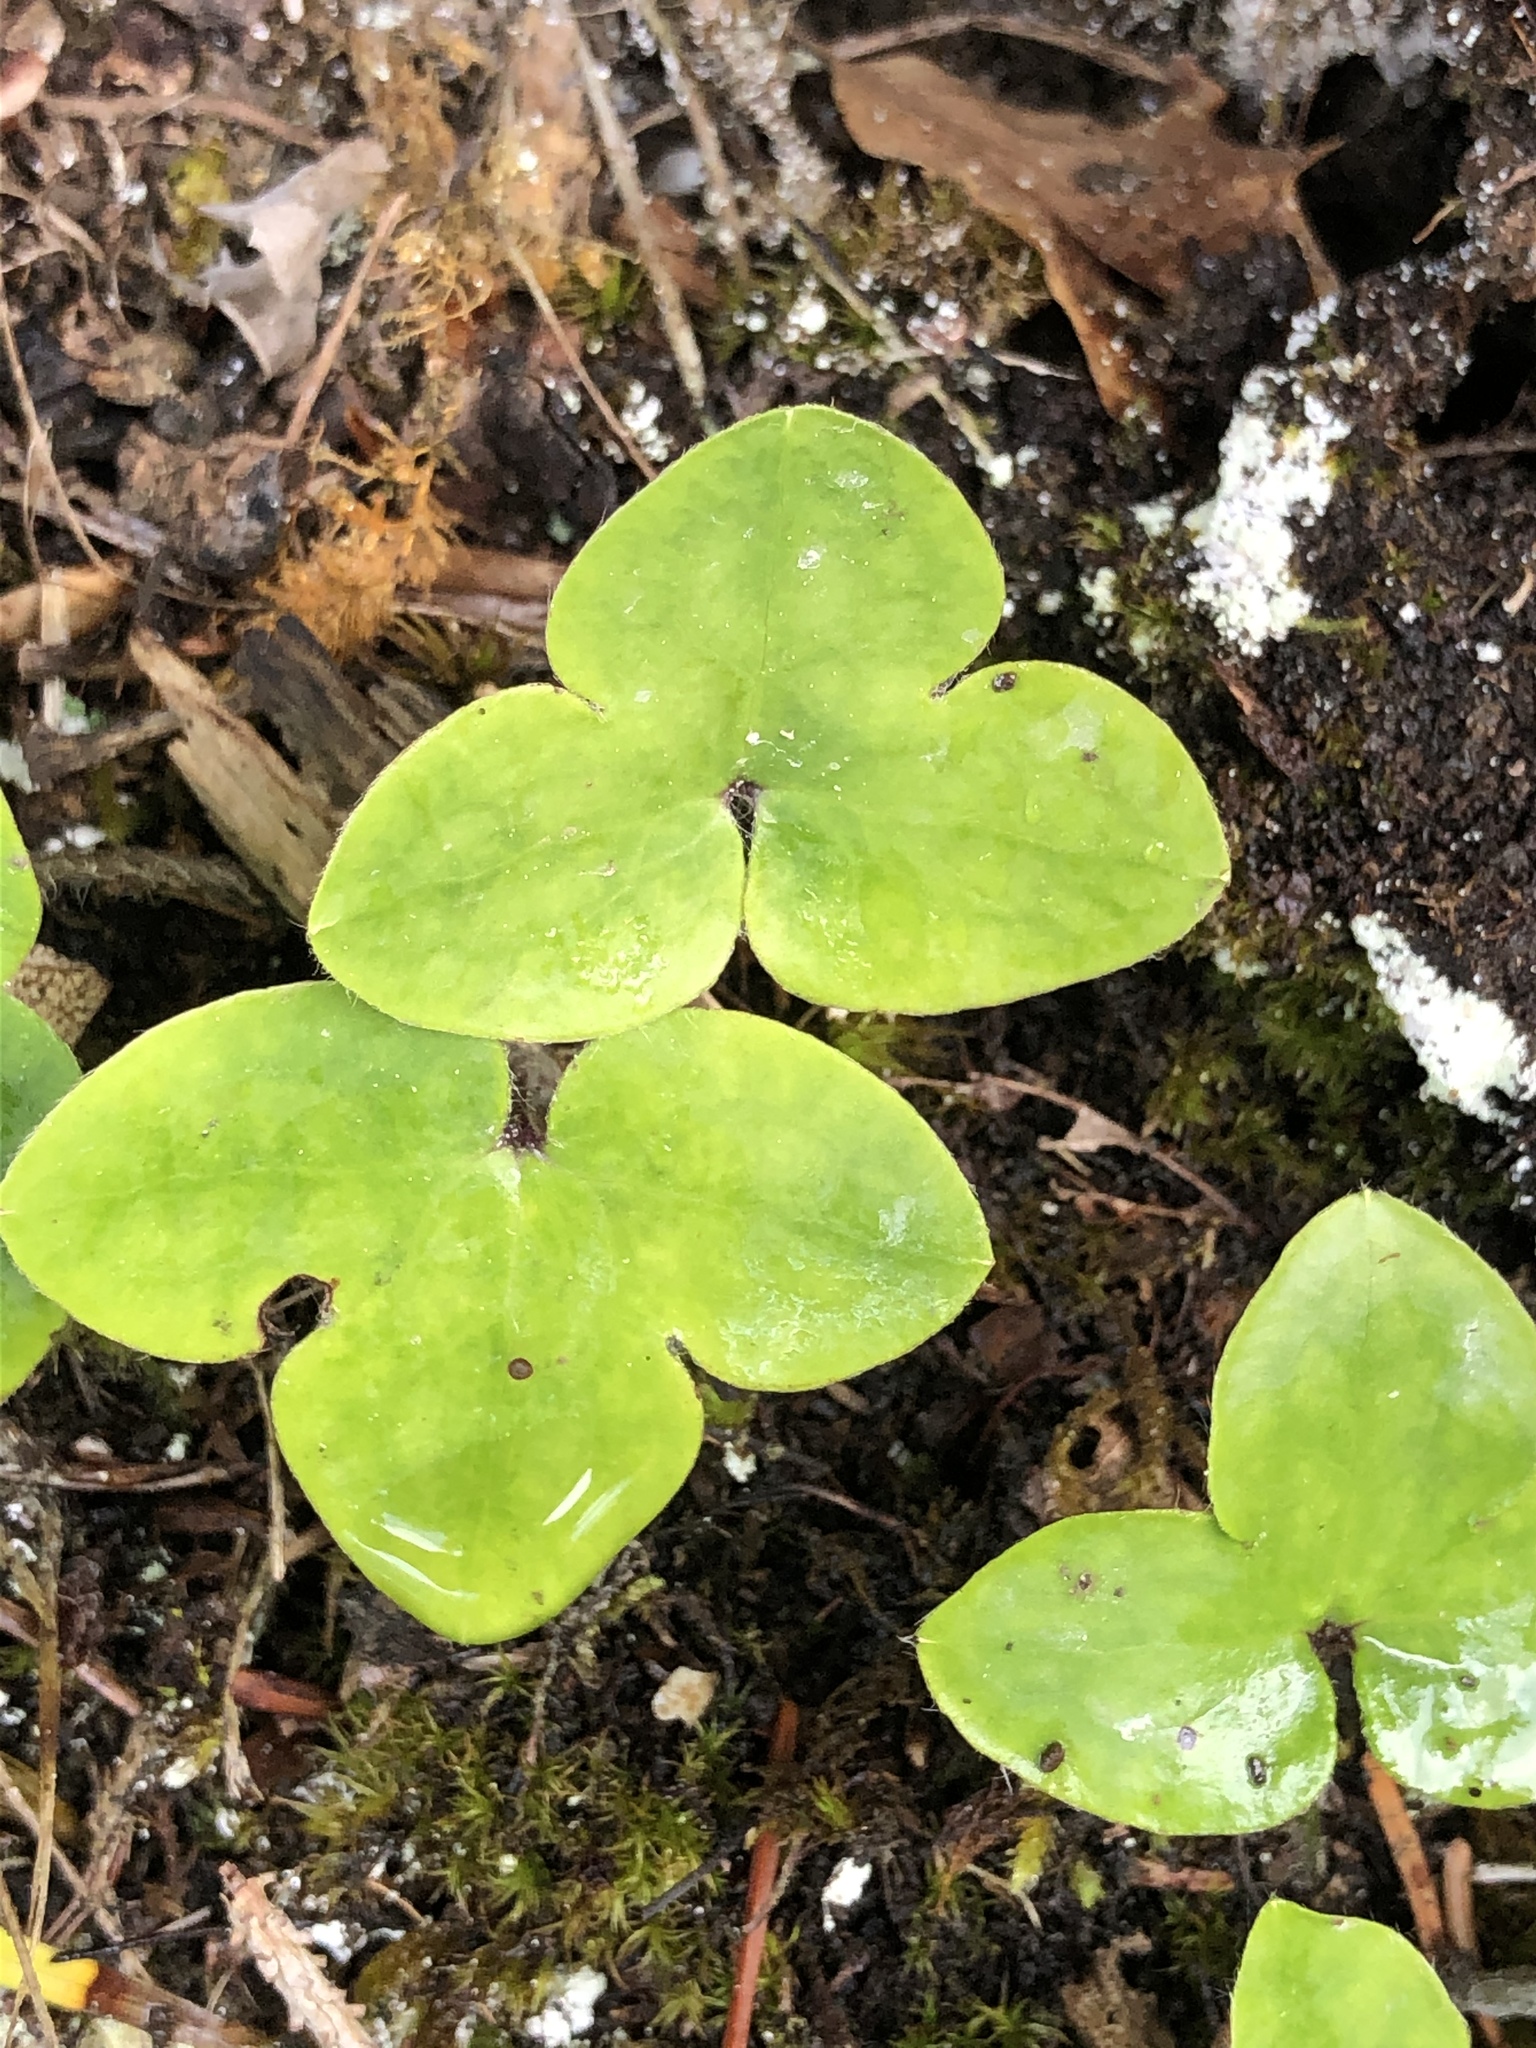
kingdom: Plantae
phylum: Tracheophyta
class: Magnoliopsida
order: Ranunculales
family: Ranunculaceae
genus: Hepatica
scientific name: Hepatica nobilis
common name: Liverleaf
